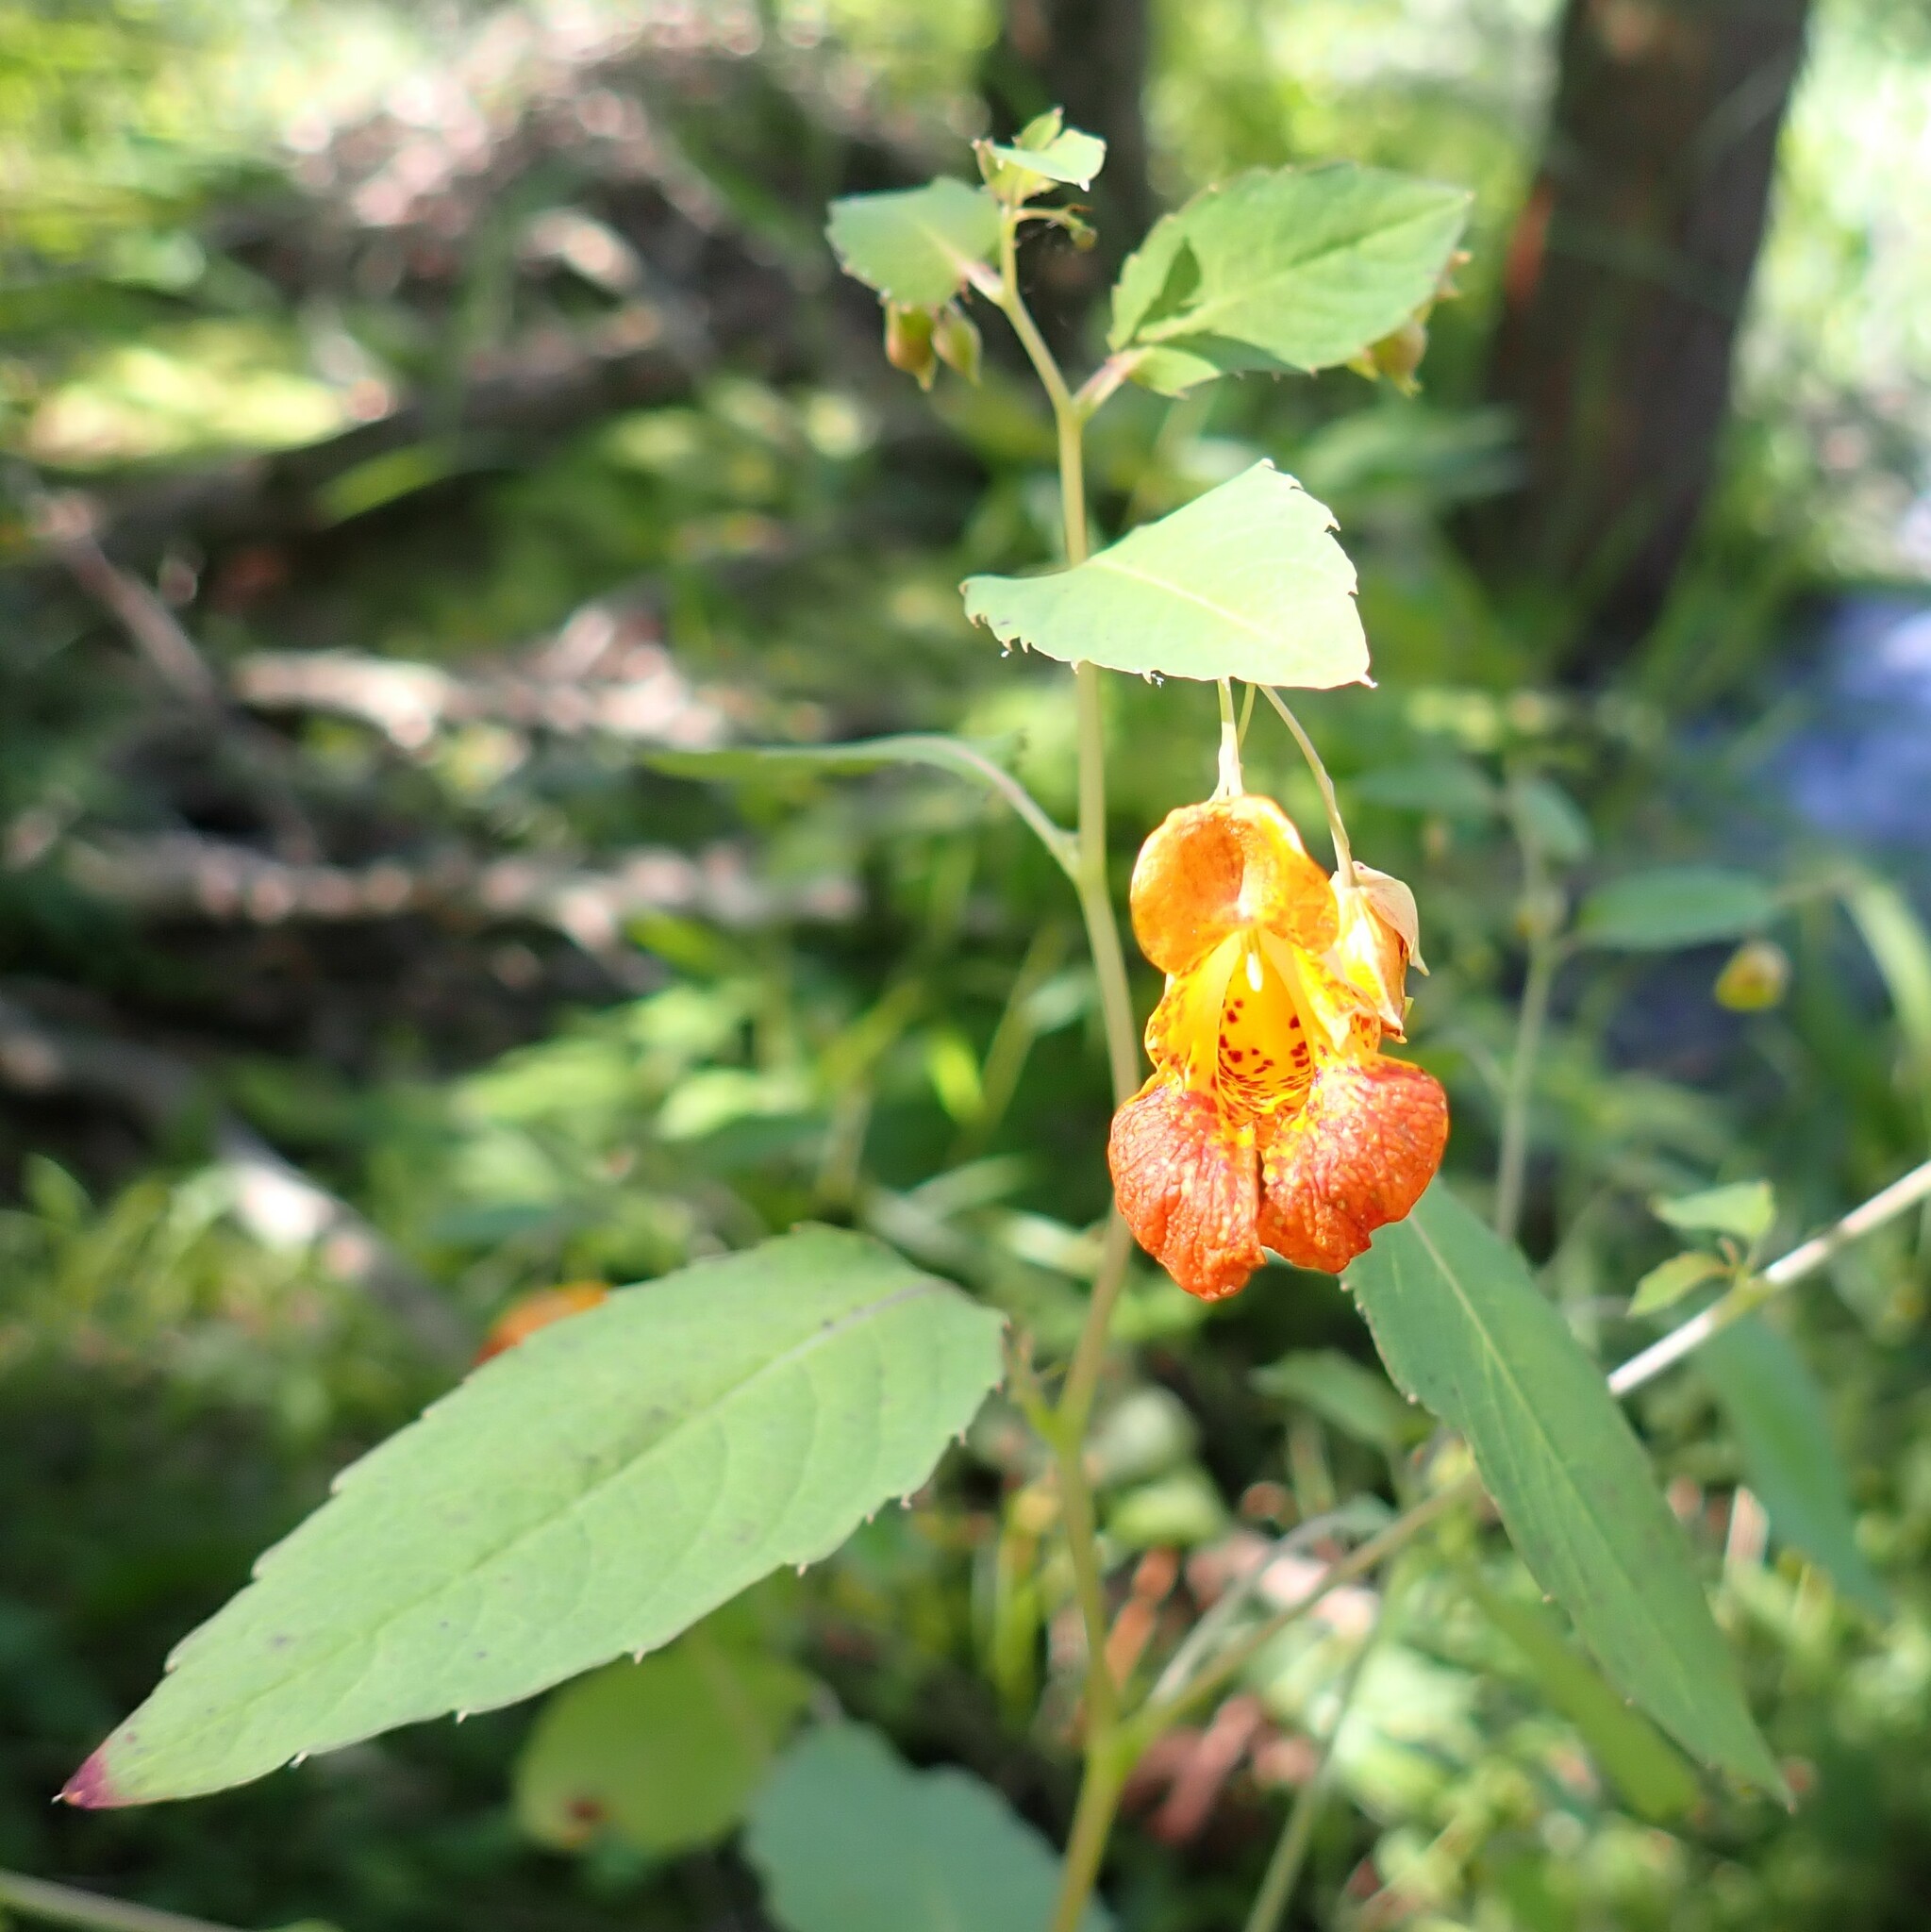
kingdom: Plantae
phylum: Tracheophyta
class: Magnoliopsida
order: Ericales
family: Balsaminaceae
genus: Impatiens
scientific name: Impatiens capensis
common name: Orange balsam
